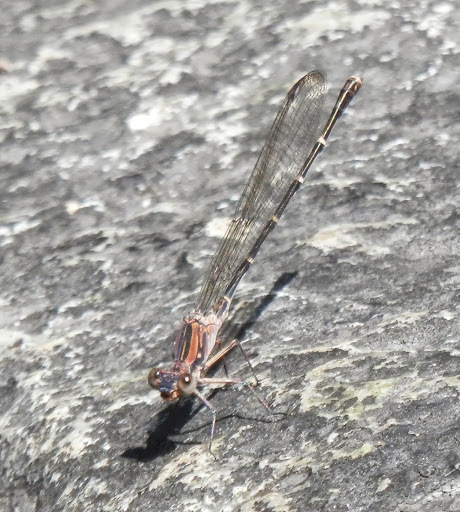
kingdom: Animalia
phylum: Arthropoda
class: Insecta
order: Odonata
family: Coenagrionidae
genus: Argia
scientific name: Argia lugens
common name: Sooty dancer
